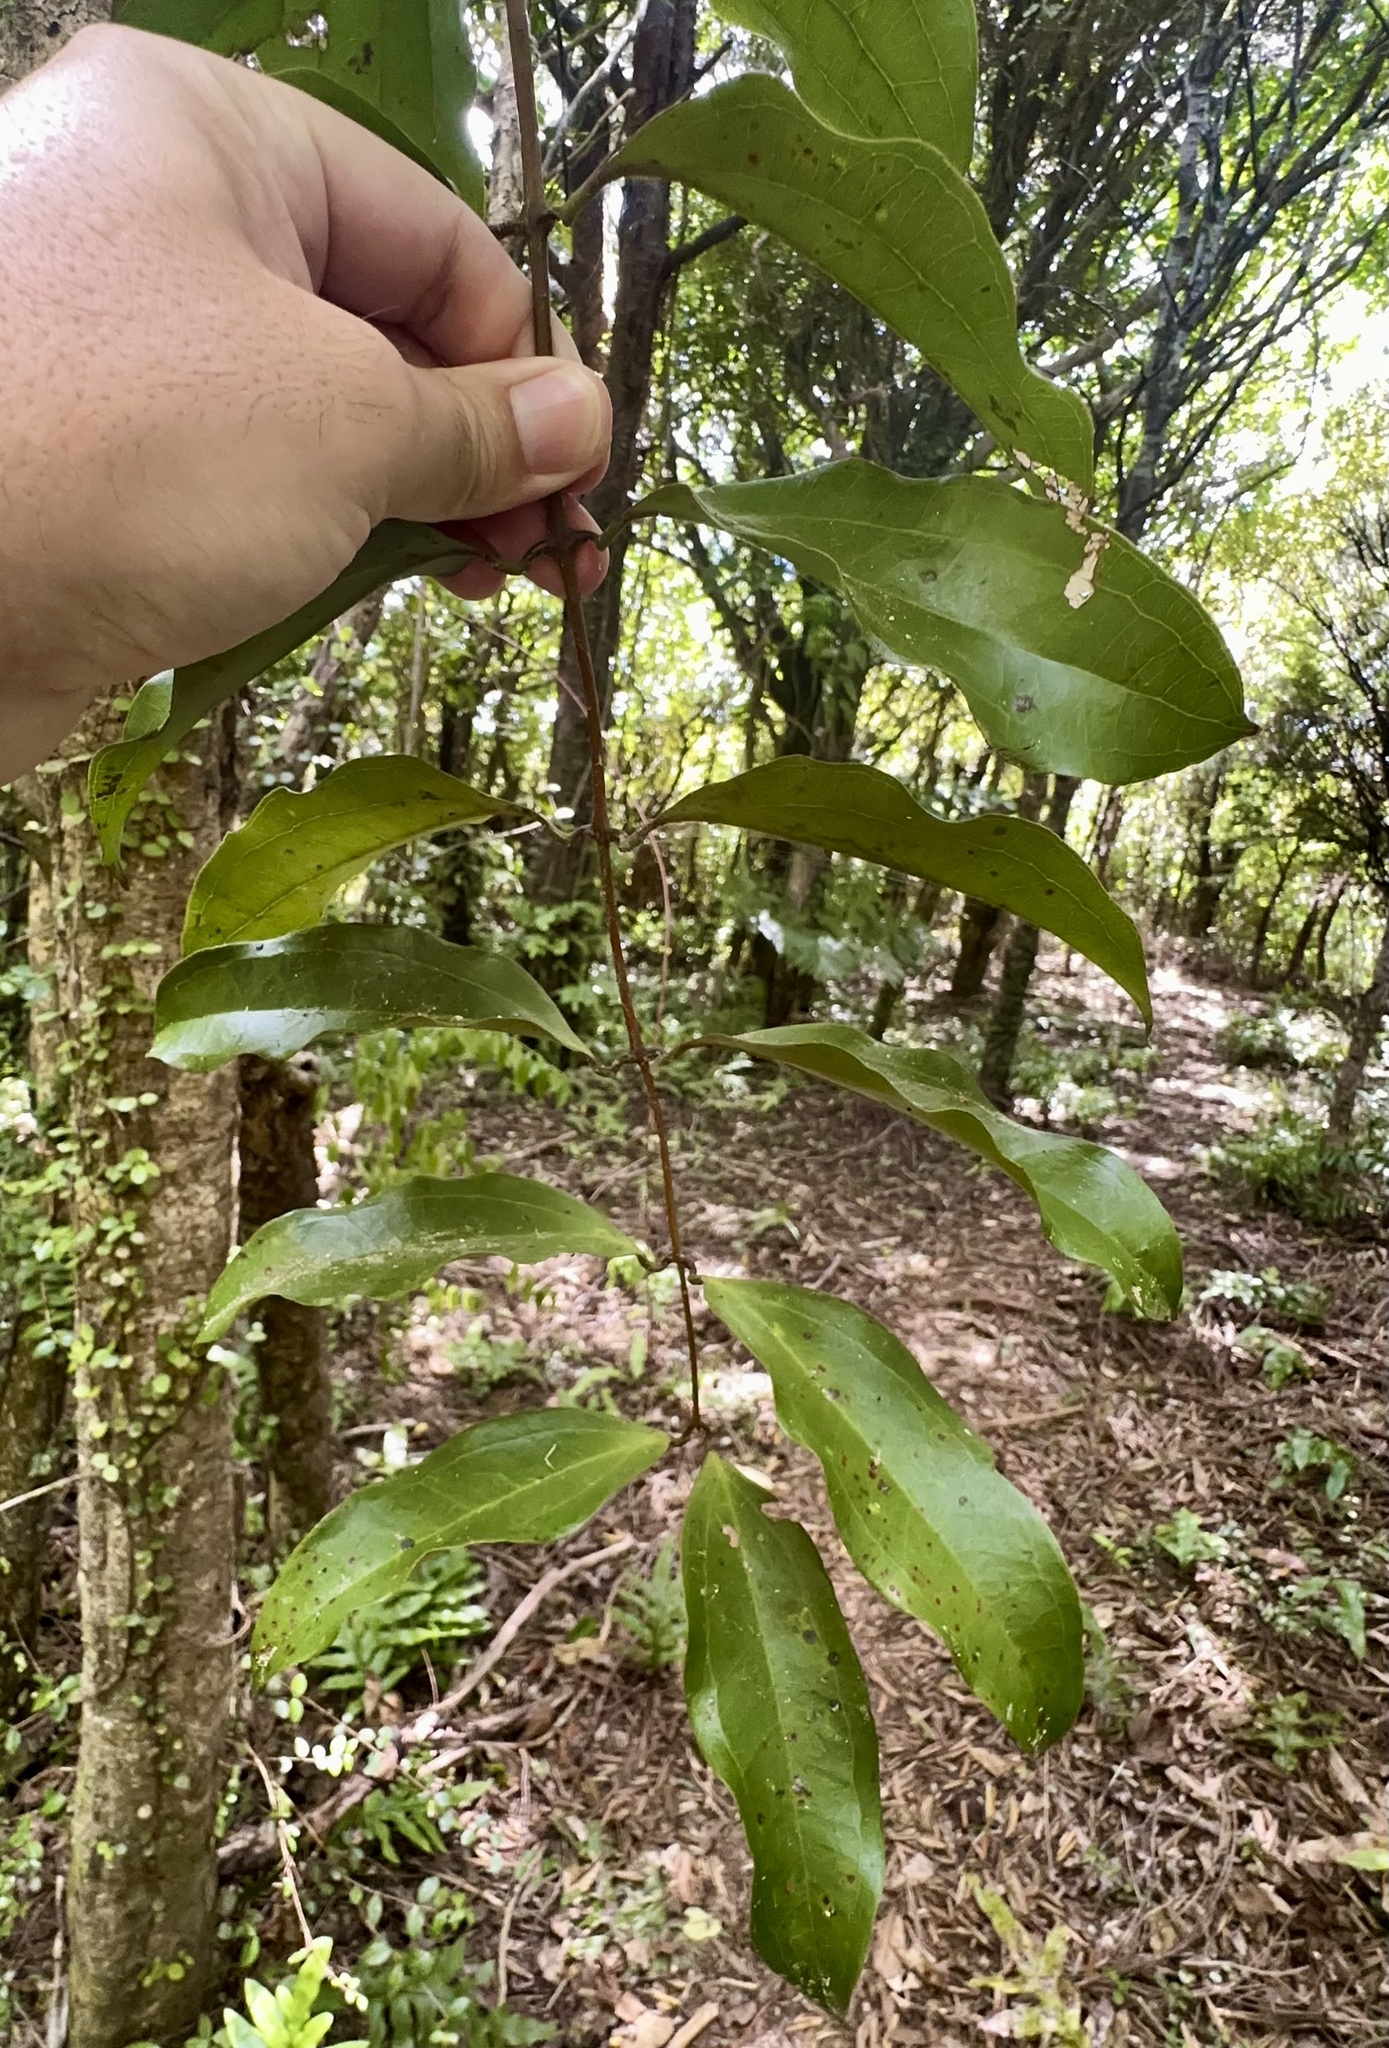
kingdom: Plantae
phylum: Tracheophyta
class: Liliopsida
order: Liliales
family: Ripogonaceae
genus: Ripogonum
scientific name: Ripogonum scandens
